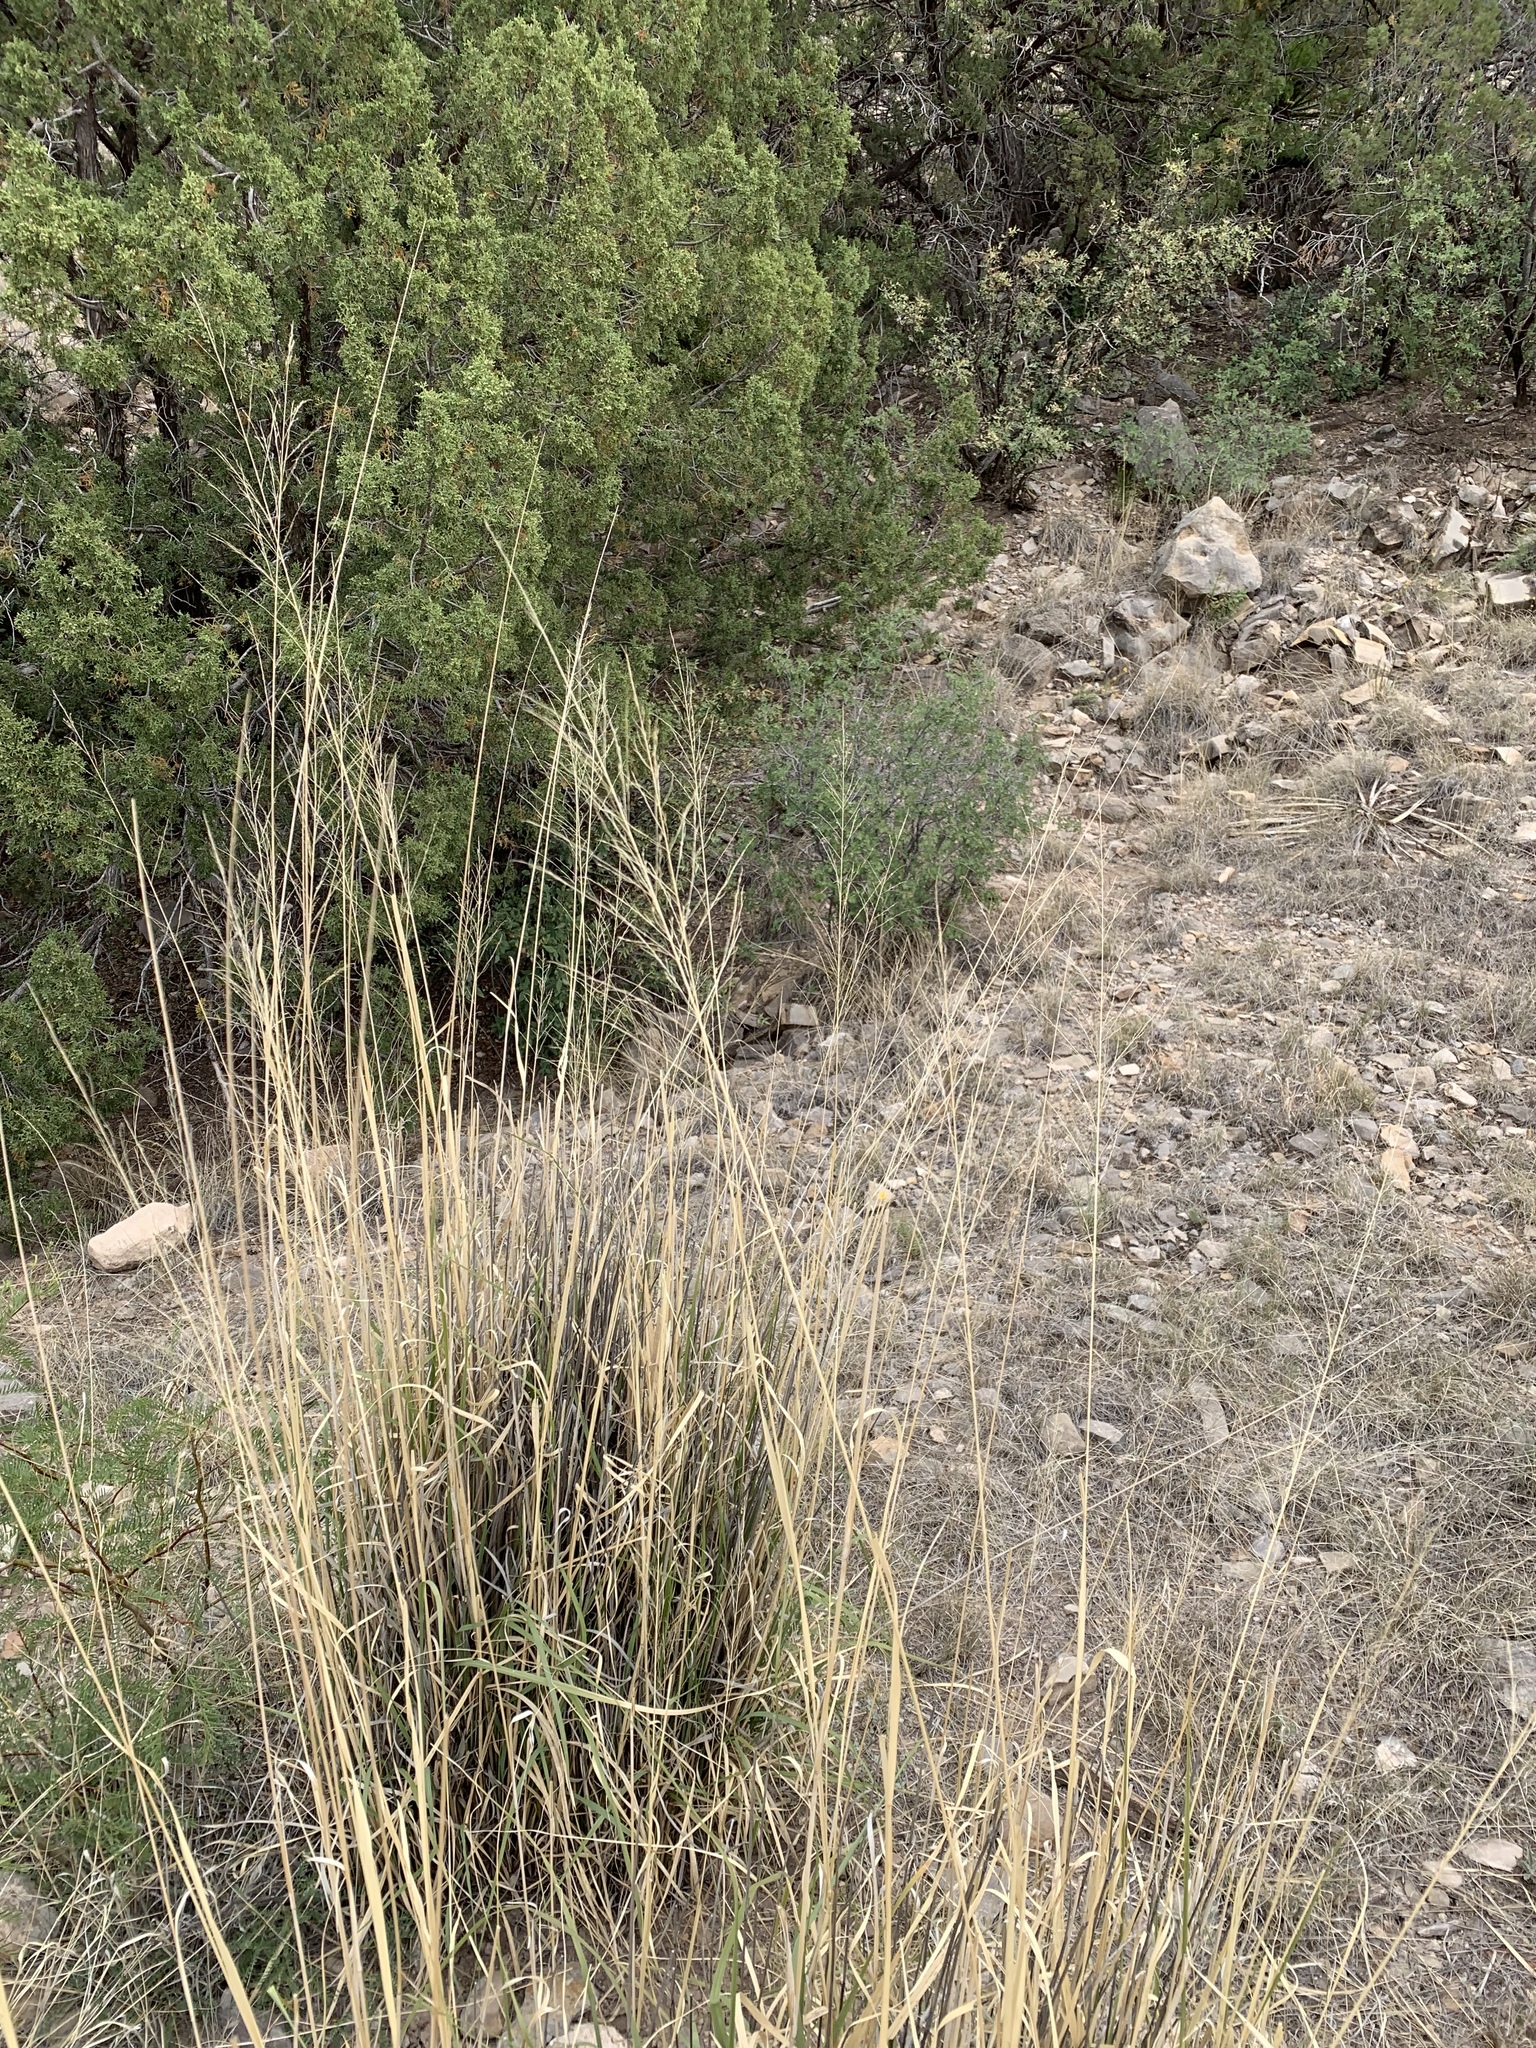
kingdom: Plantae
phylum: Tracheophyta
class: Liliopsida
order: Poales
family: Poaceae
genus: Sporobolus
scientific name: Sporobolus wrightii
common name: Big alkali sacaton
